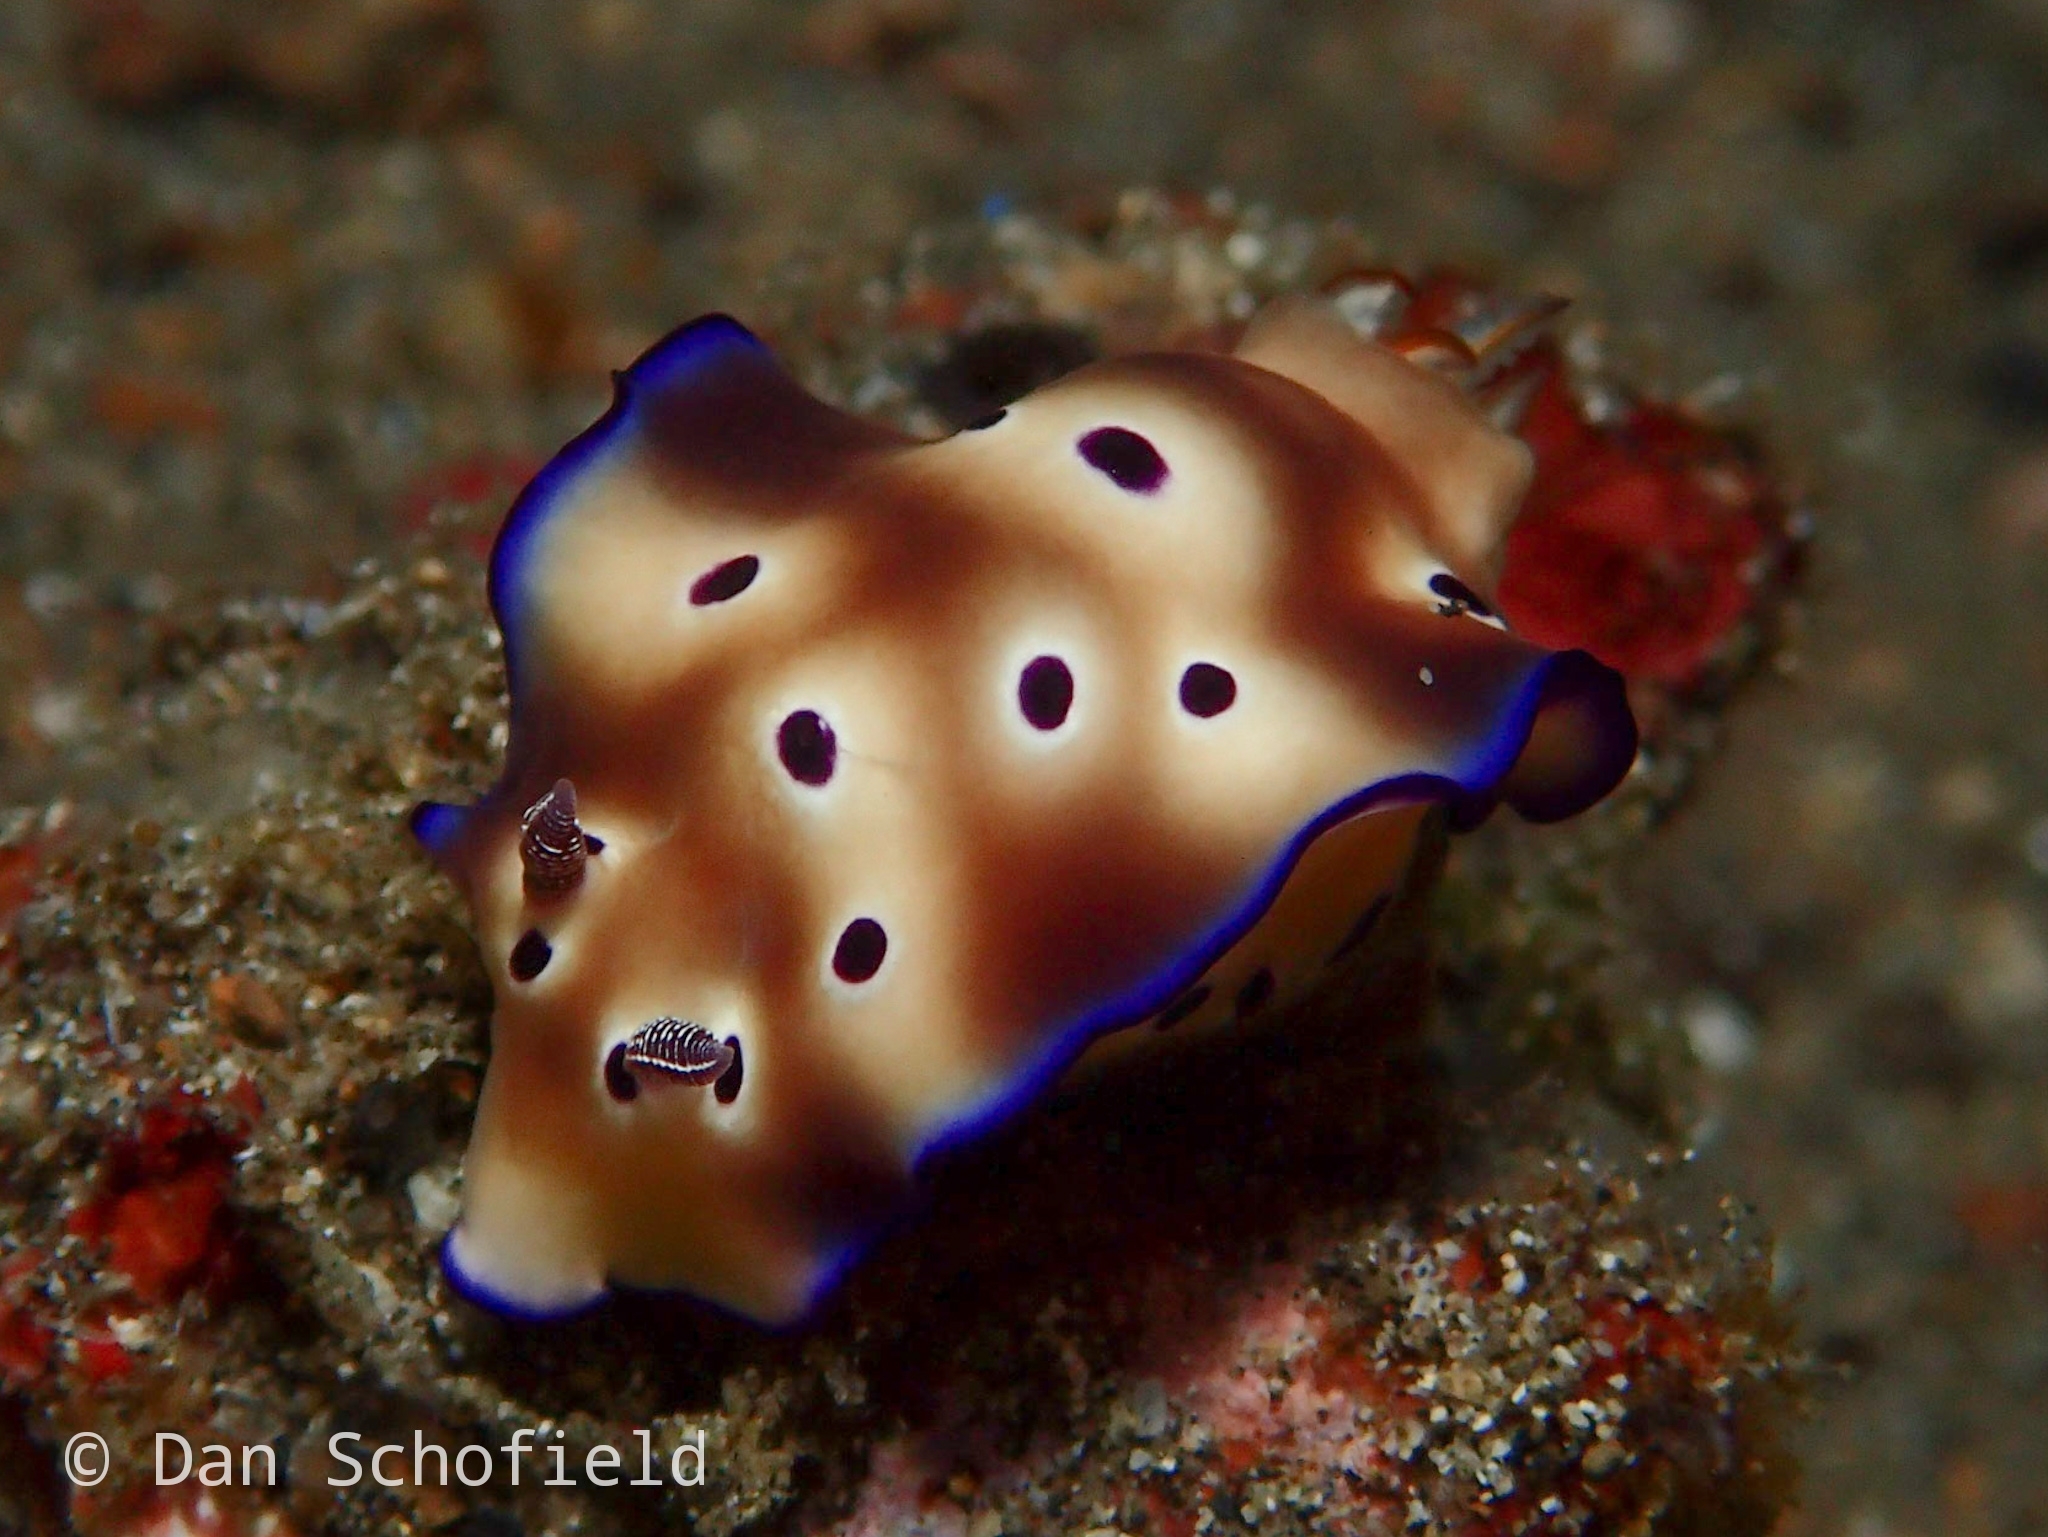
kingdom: Animalia
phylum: Mollusca
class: Gastropoda
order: Nudibranchia
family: Chromodorididae
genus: Hypselodoris
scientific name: Hypselodoris tryoni
